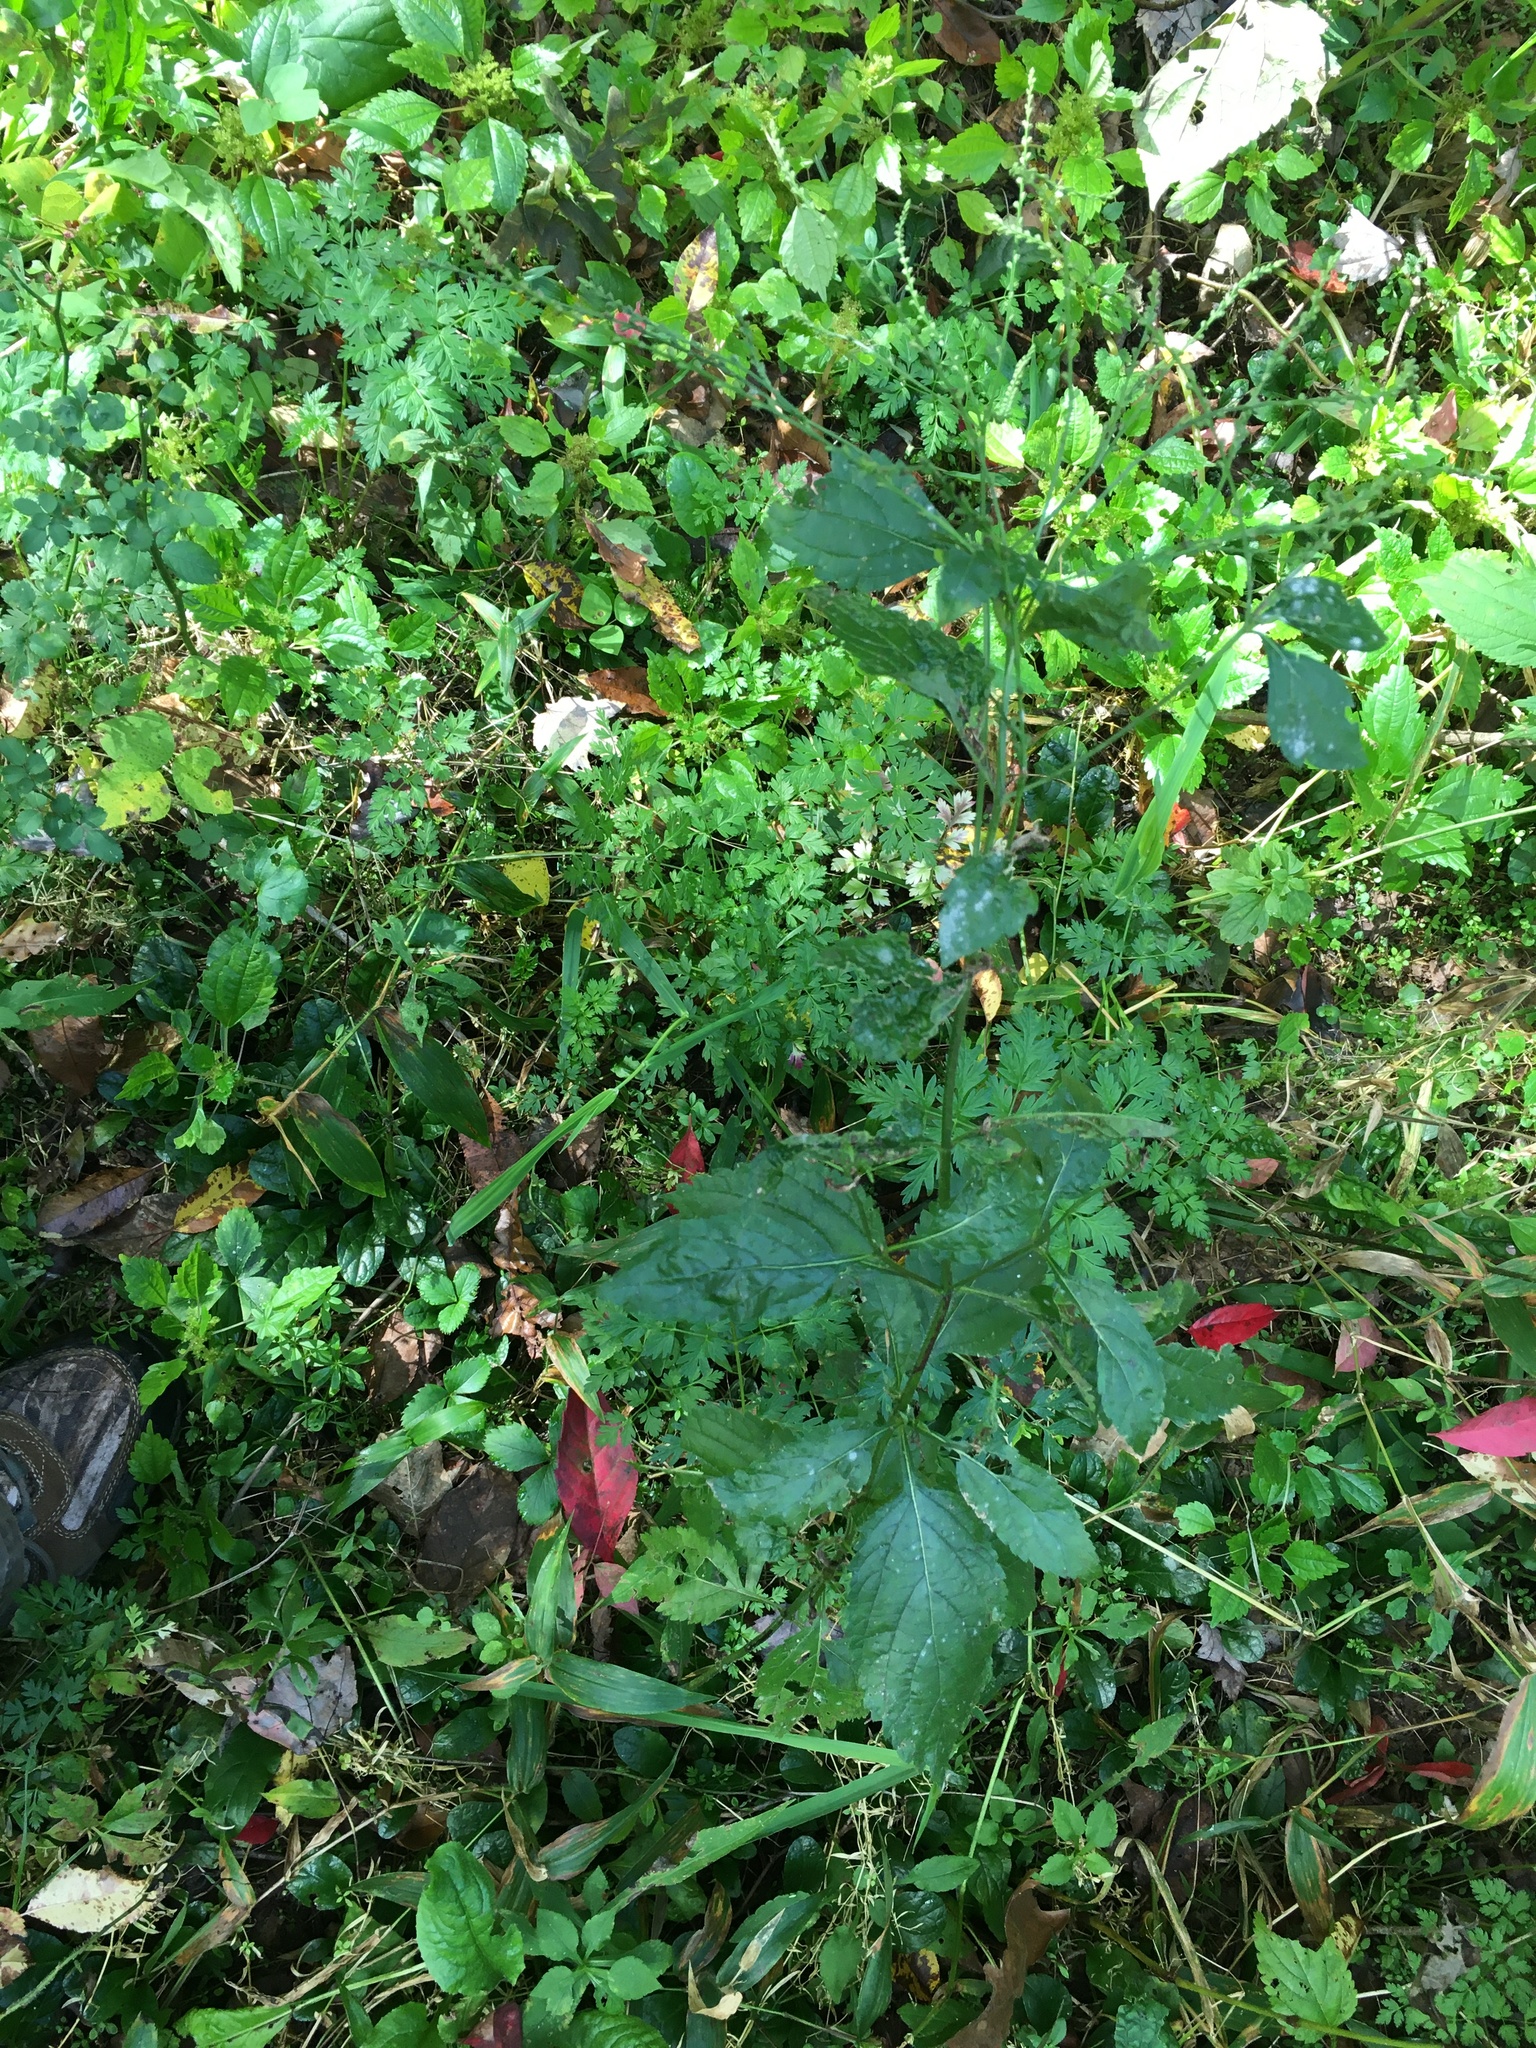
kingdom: Plantae
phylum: Tracheophyta
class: Magnoliopsida
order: Lamiales
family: Verbenaceae
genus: Verbena
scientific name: Verbena urticifolia
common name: Nettle-leaved vervain
